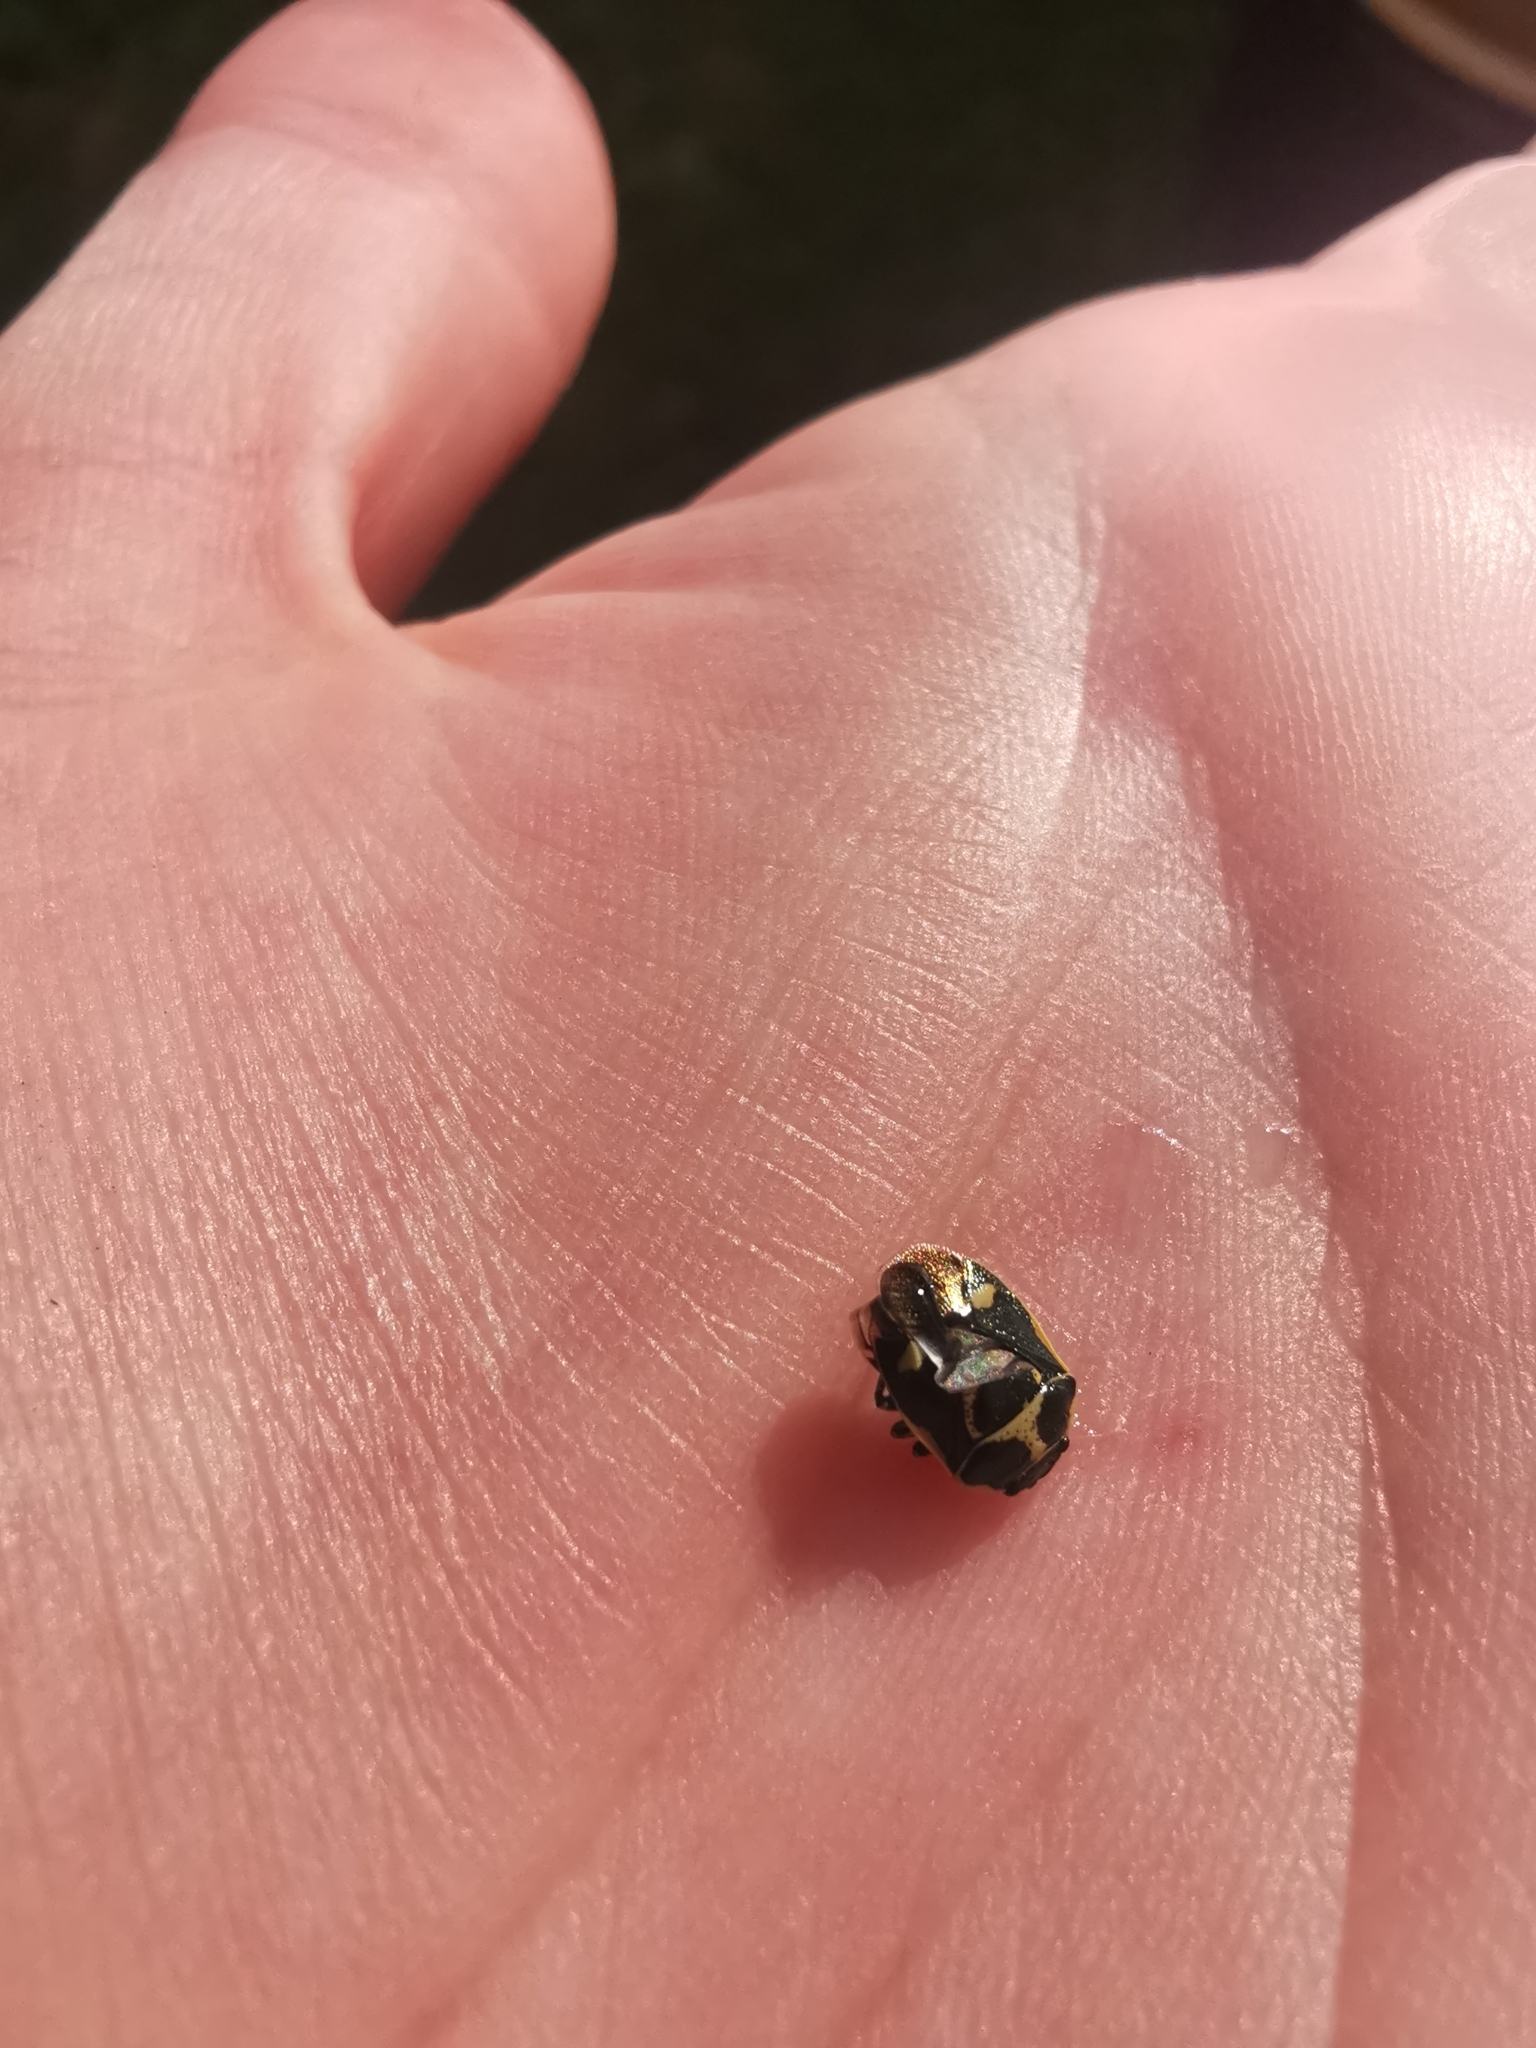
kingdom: Animalia
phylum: Arthropoda
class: Insecta
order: Hemiptera
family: Pentatomidae
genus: Eurydema
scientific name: Eurydema oleracea
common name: Cabbage bug
